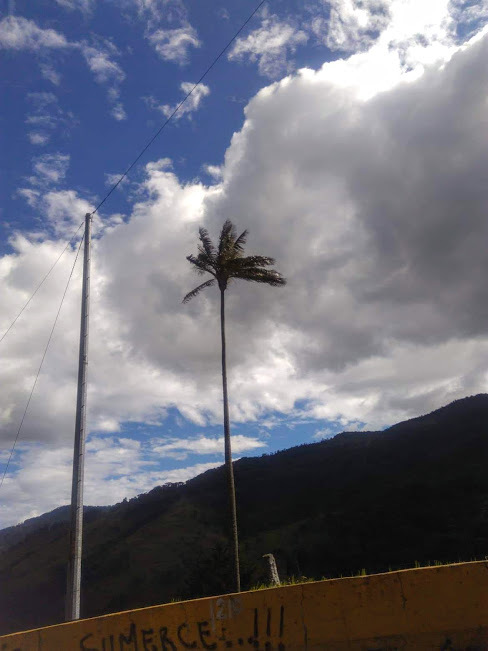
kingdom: Plantae
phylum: Tracheophyta
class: Liliopsida
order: Arecales
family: Arecaceae
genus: Ceroxylon
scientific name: Ceroxylon quindiuense
